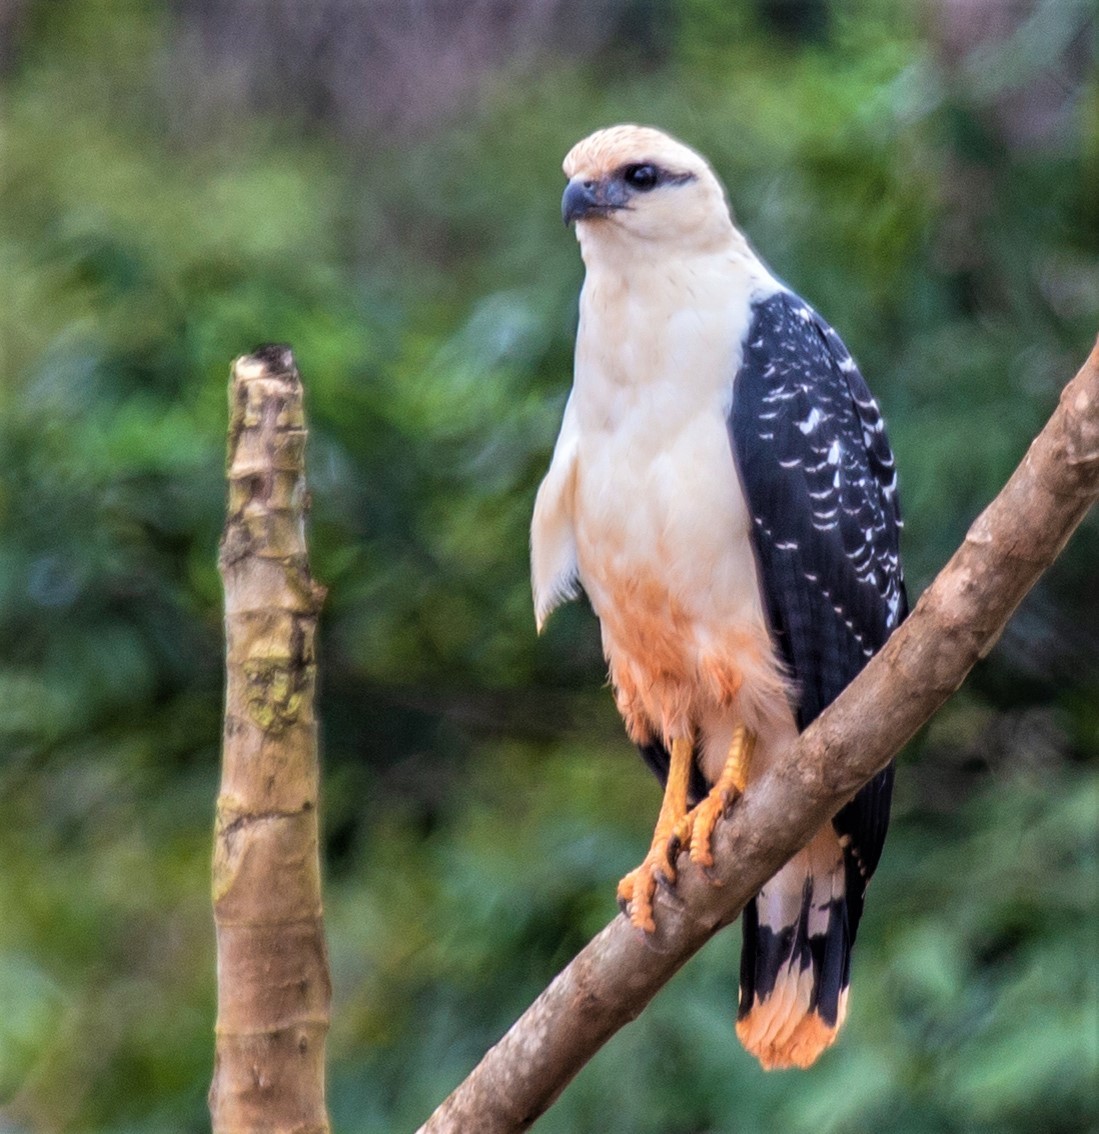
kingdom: Animalia
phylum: Chordata
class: Aves
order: Accipitriformes
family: Accipitridae
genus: Leucopternis
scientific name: Leucopternis albicollis
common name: White hawk
